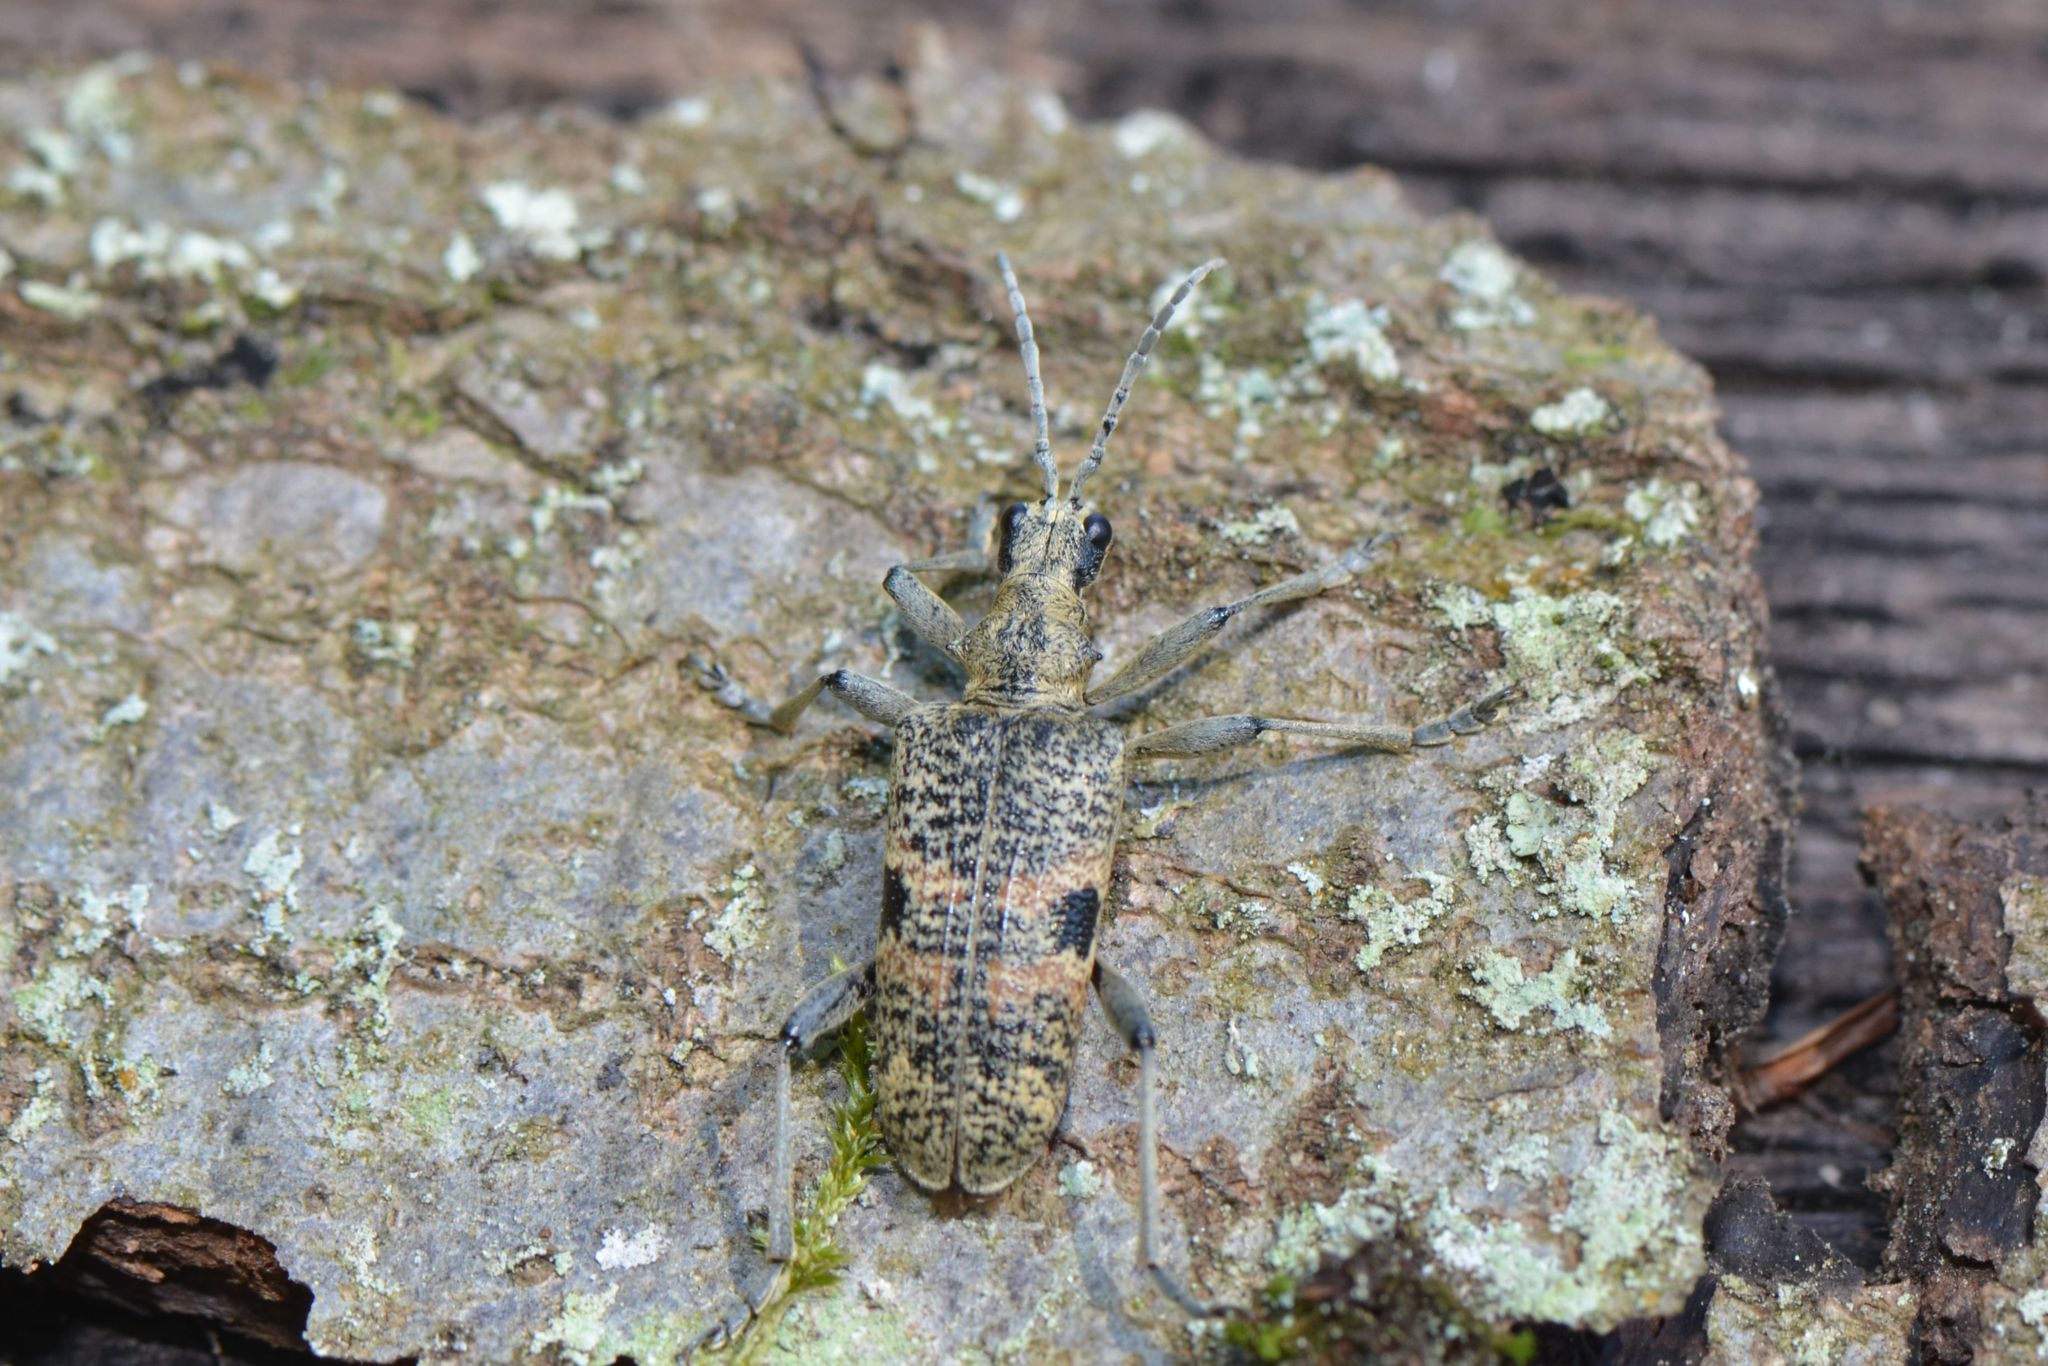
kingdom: Animalia
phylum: Arthropoda
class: Insecta
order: Coleoptera
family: Cerambycidae
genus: Rhagium
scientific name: Rhagium mordax
